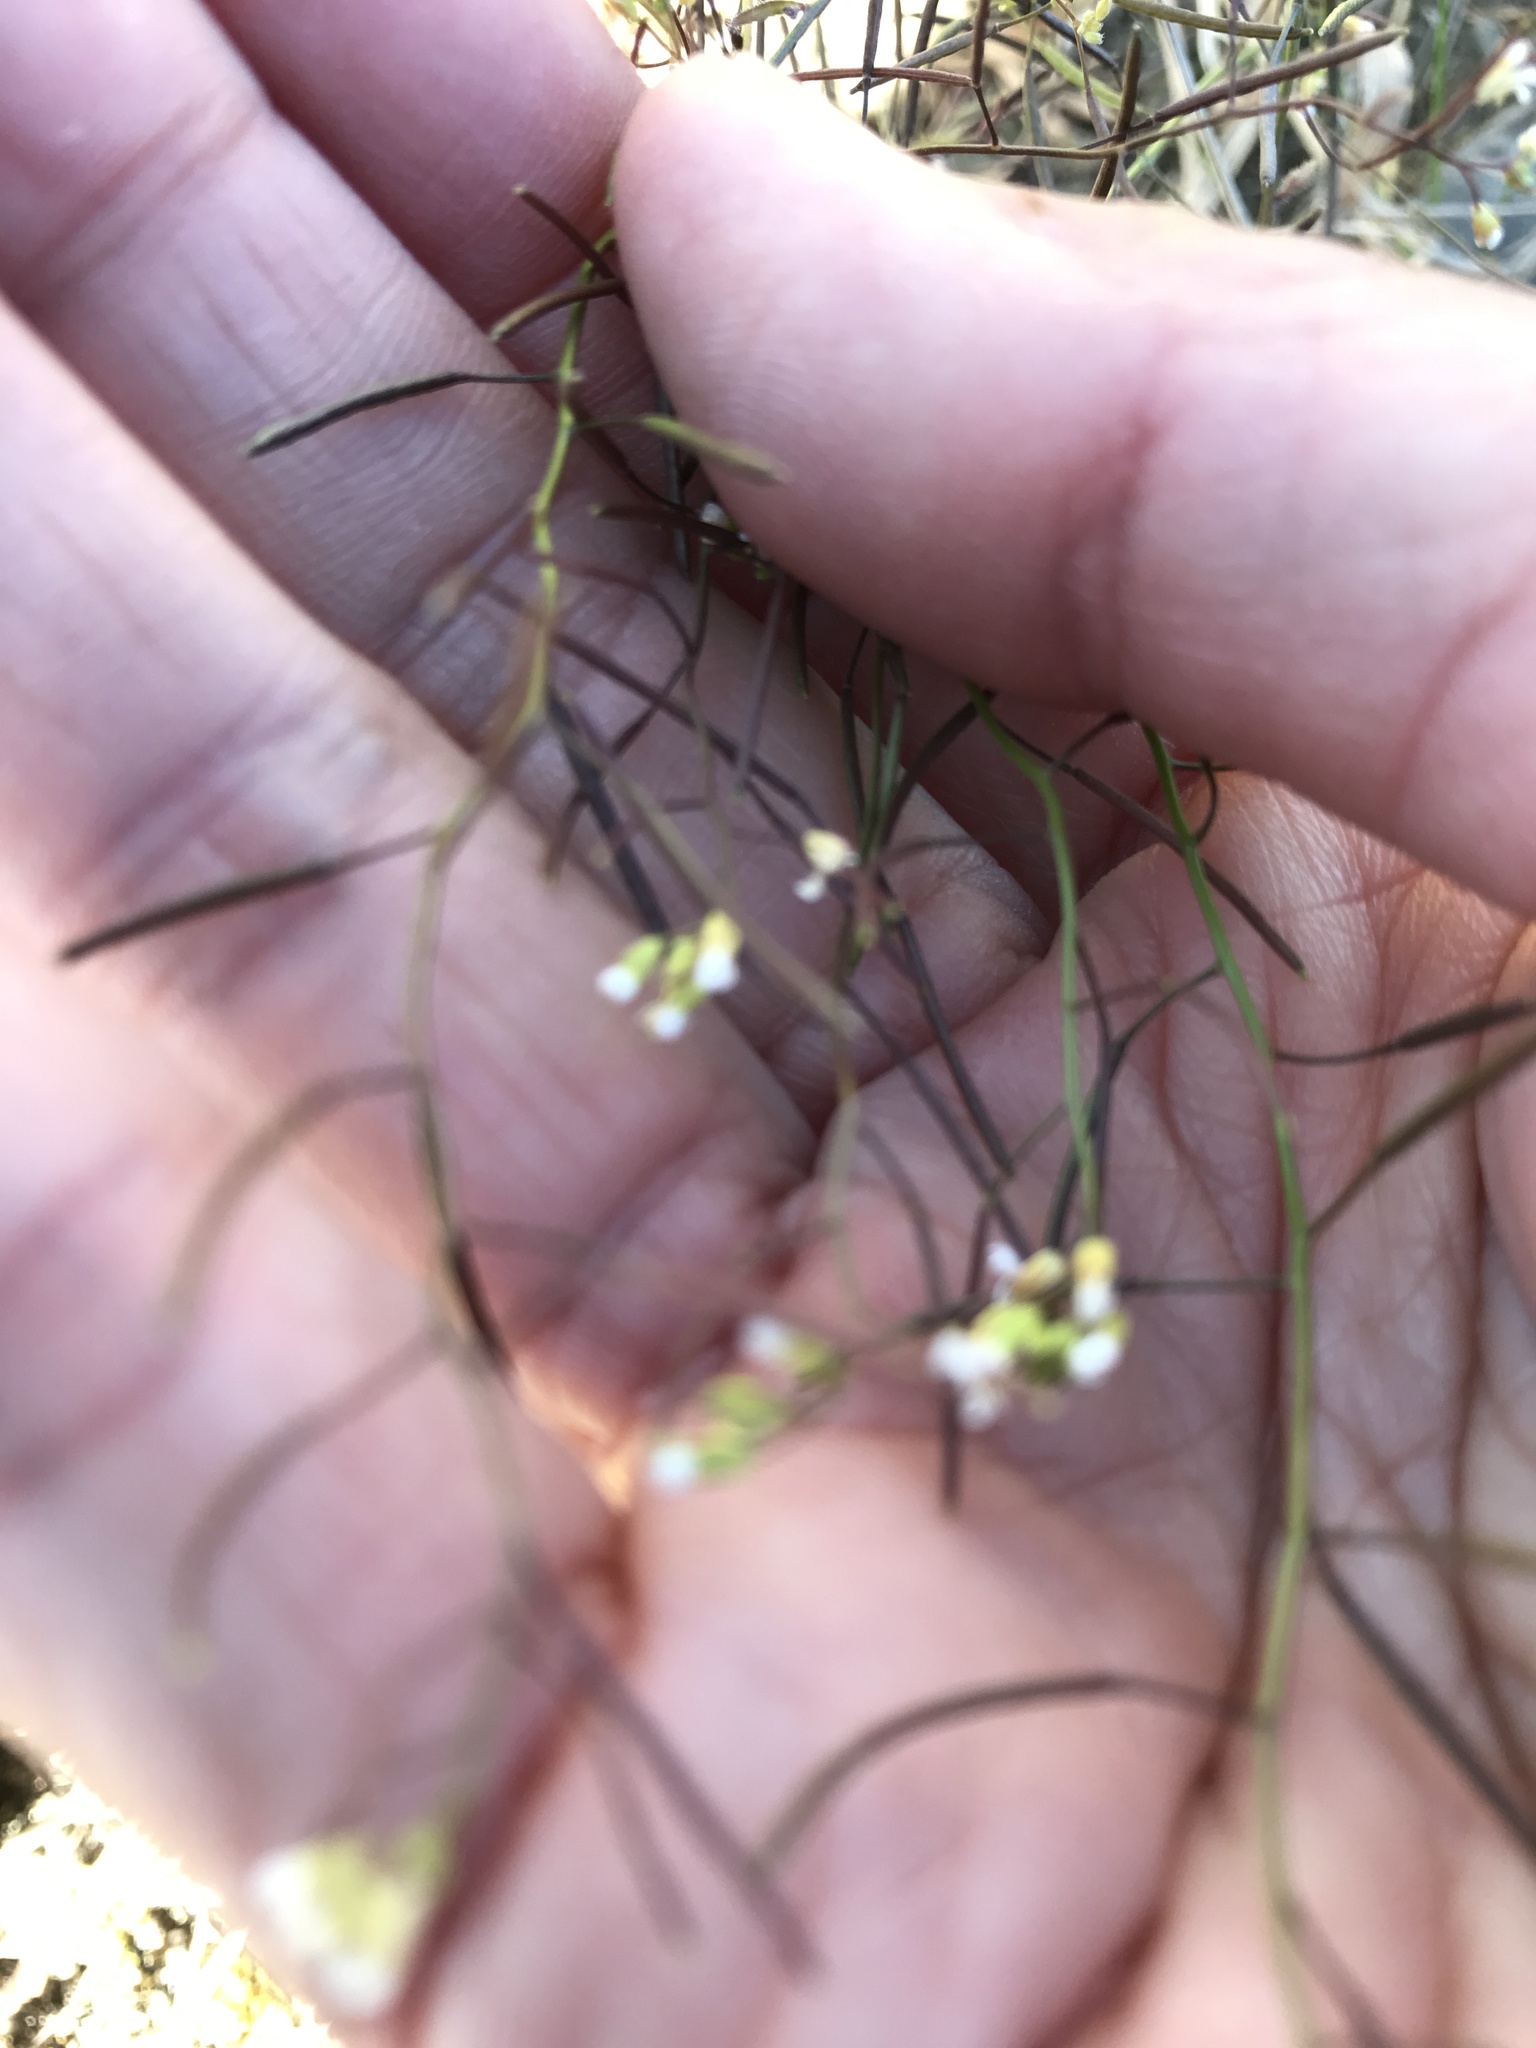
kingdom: Plantae
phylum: Tracheophyta
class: Magnoliopsida
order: Brassicales
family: Brassicaceae
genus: Arabidopsis
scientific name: Arabidopsis thaliana
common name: Thale cress
